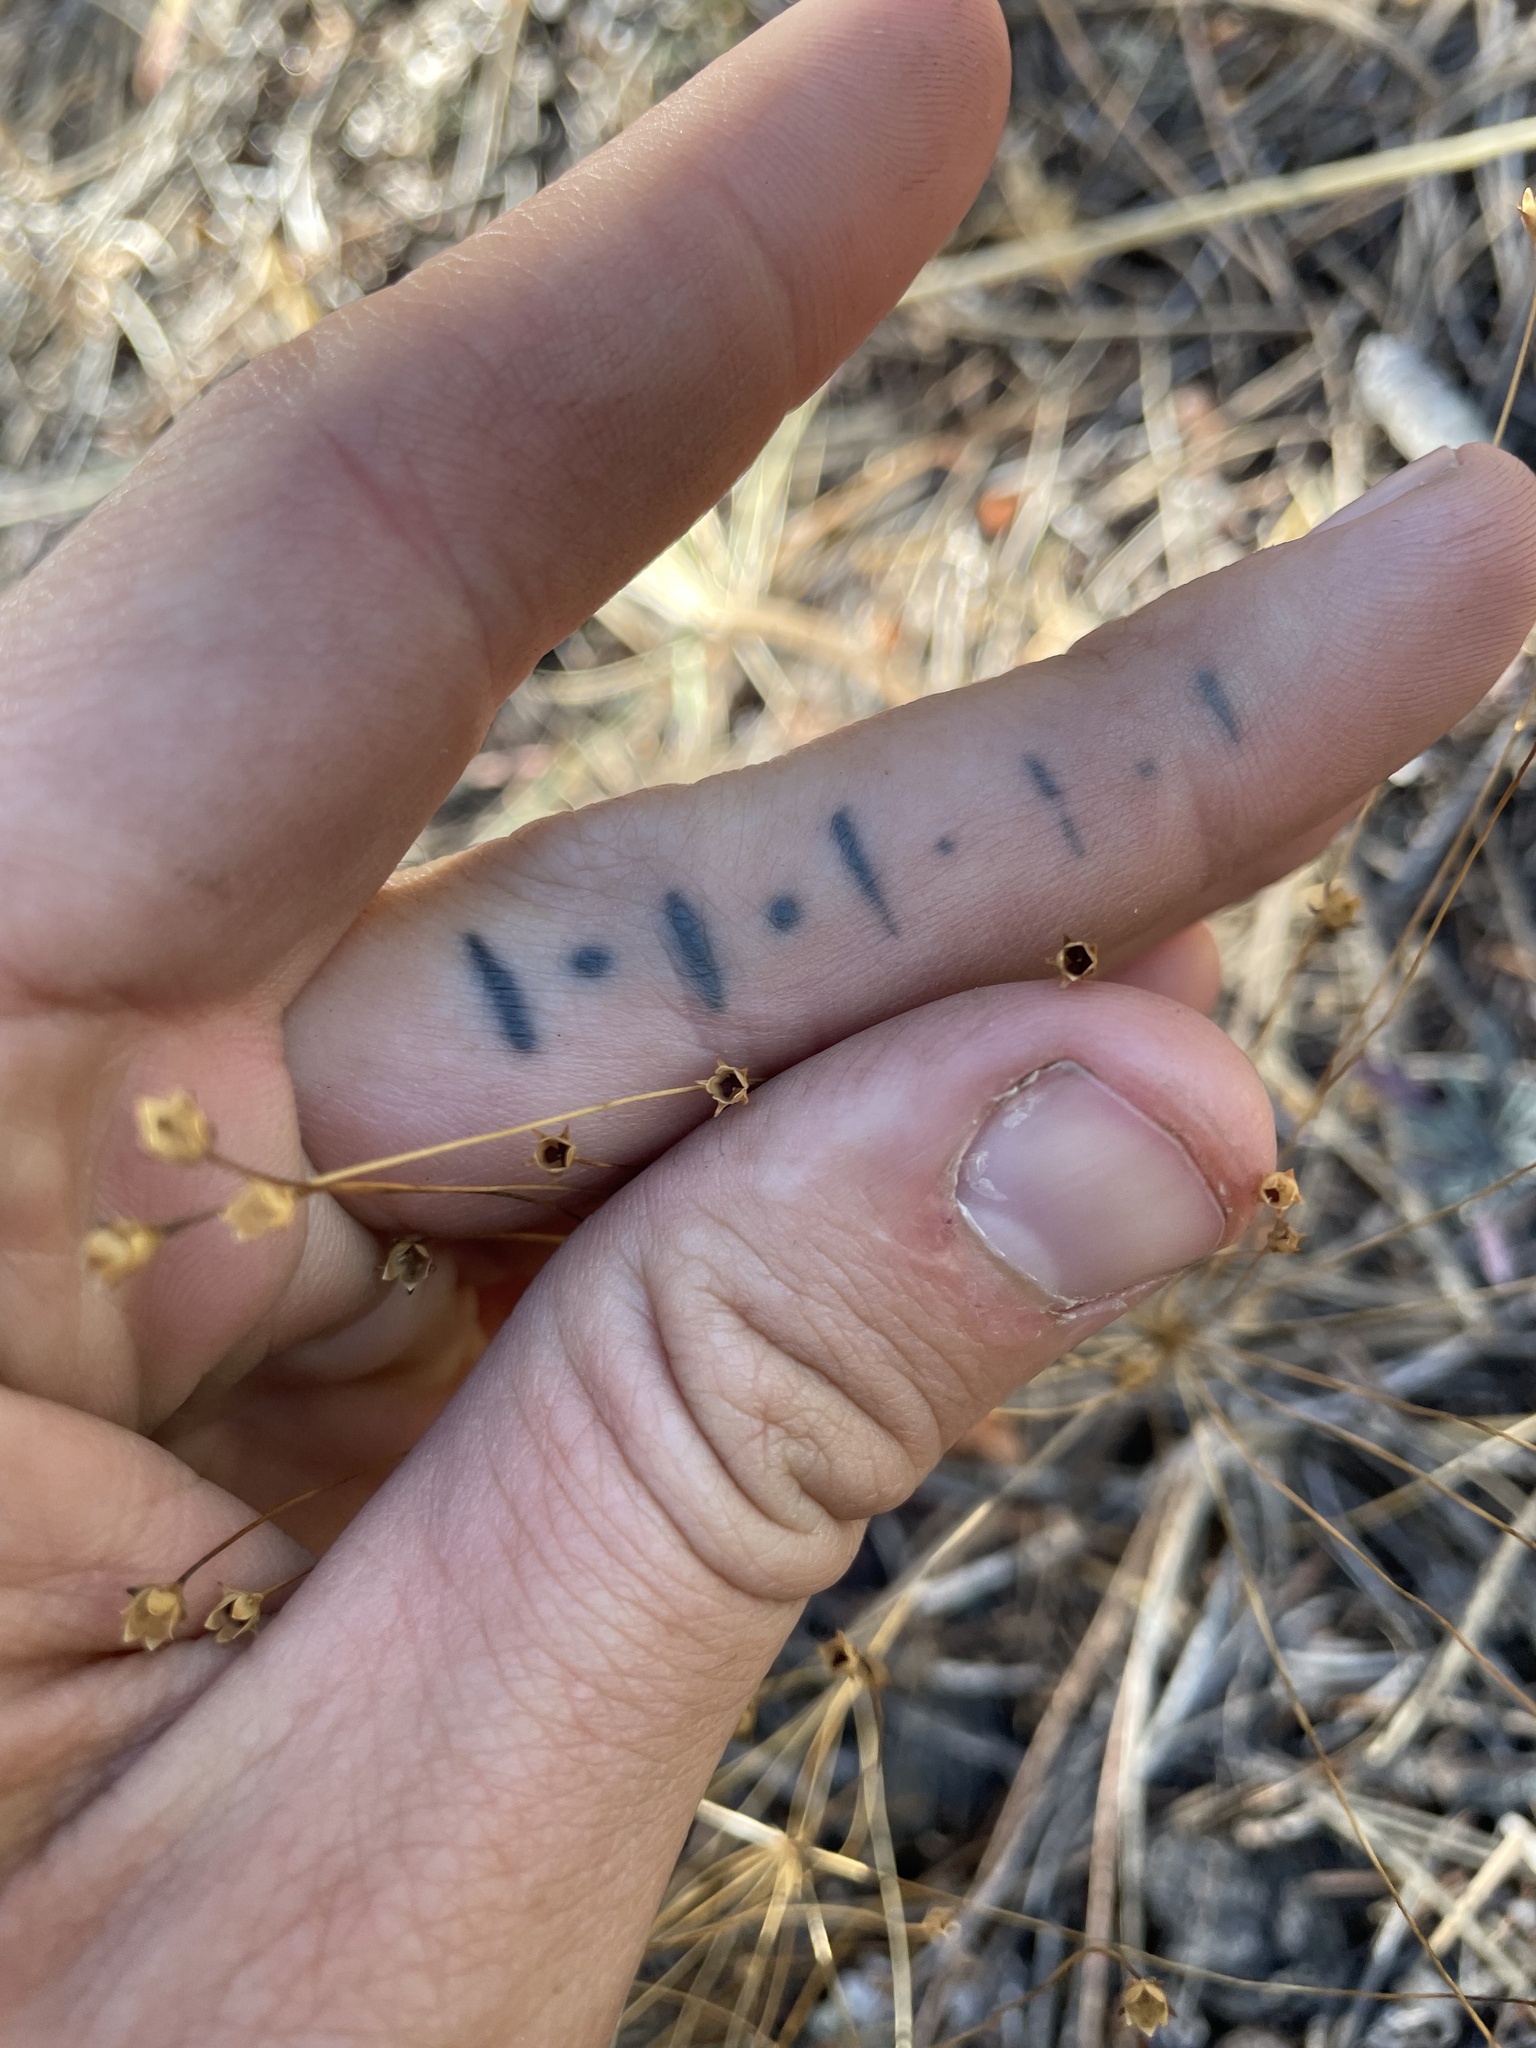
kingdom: Plantae
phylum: Tracheophyta
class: Magnoliopsida
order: Ericales
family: Primulaceae
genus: Androsace
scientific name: Androsace septentrionalis
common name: Hairy northern fairy-candelabra
